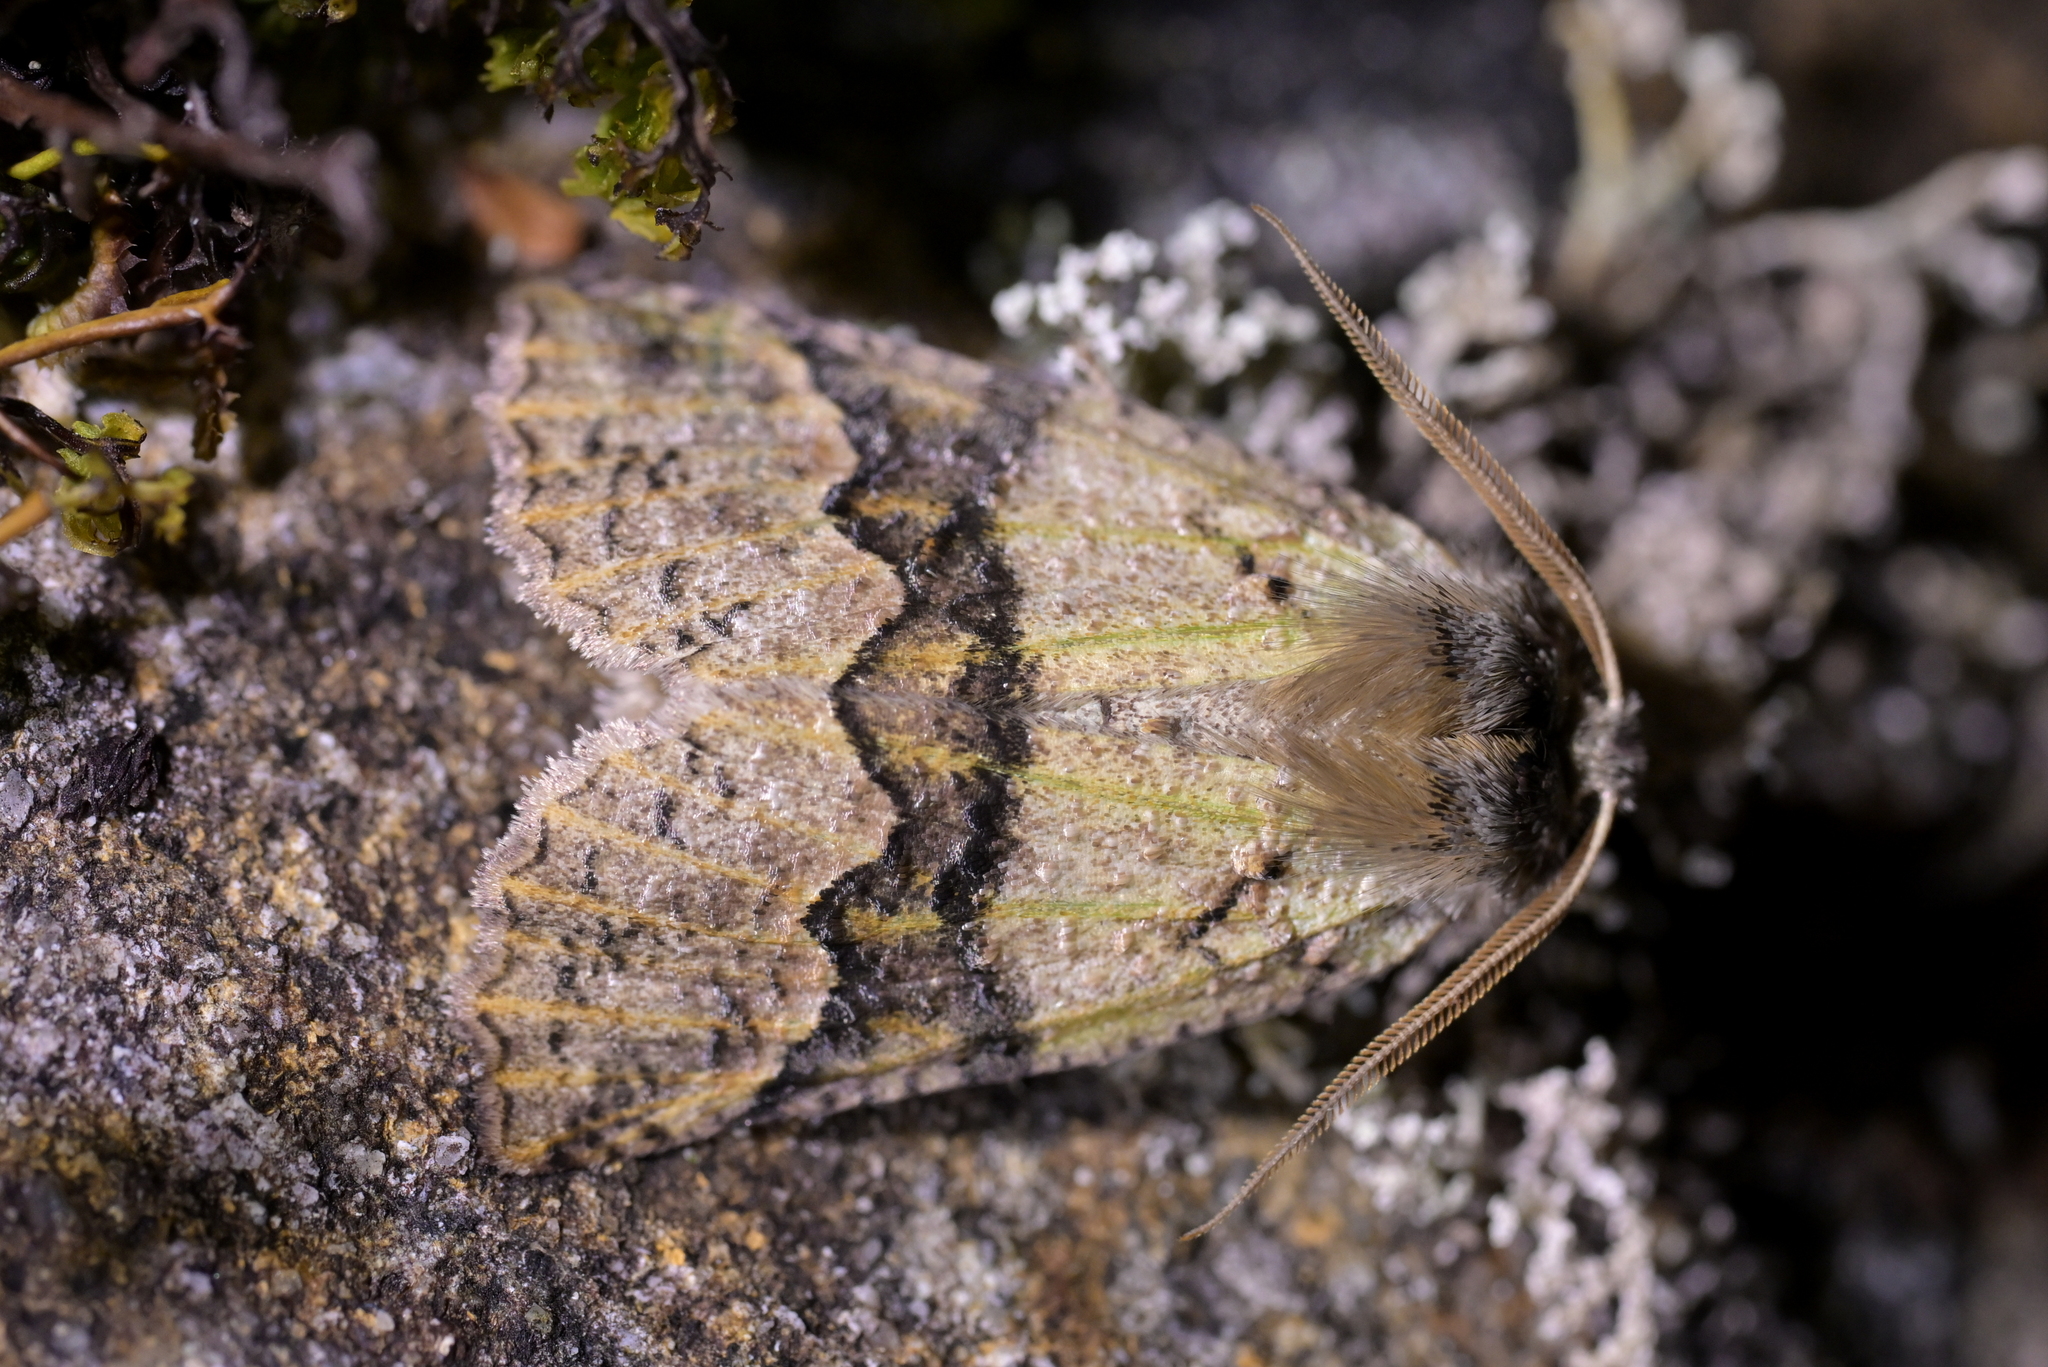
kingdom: Animalia
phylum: Arthropoda
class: Insecta
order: Lepidoptera
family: Geometridae
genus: Declana
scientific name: Declana floccosa
